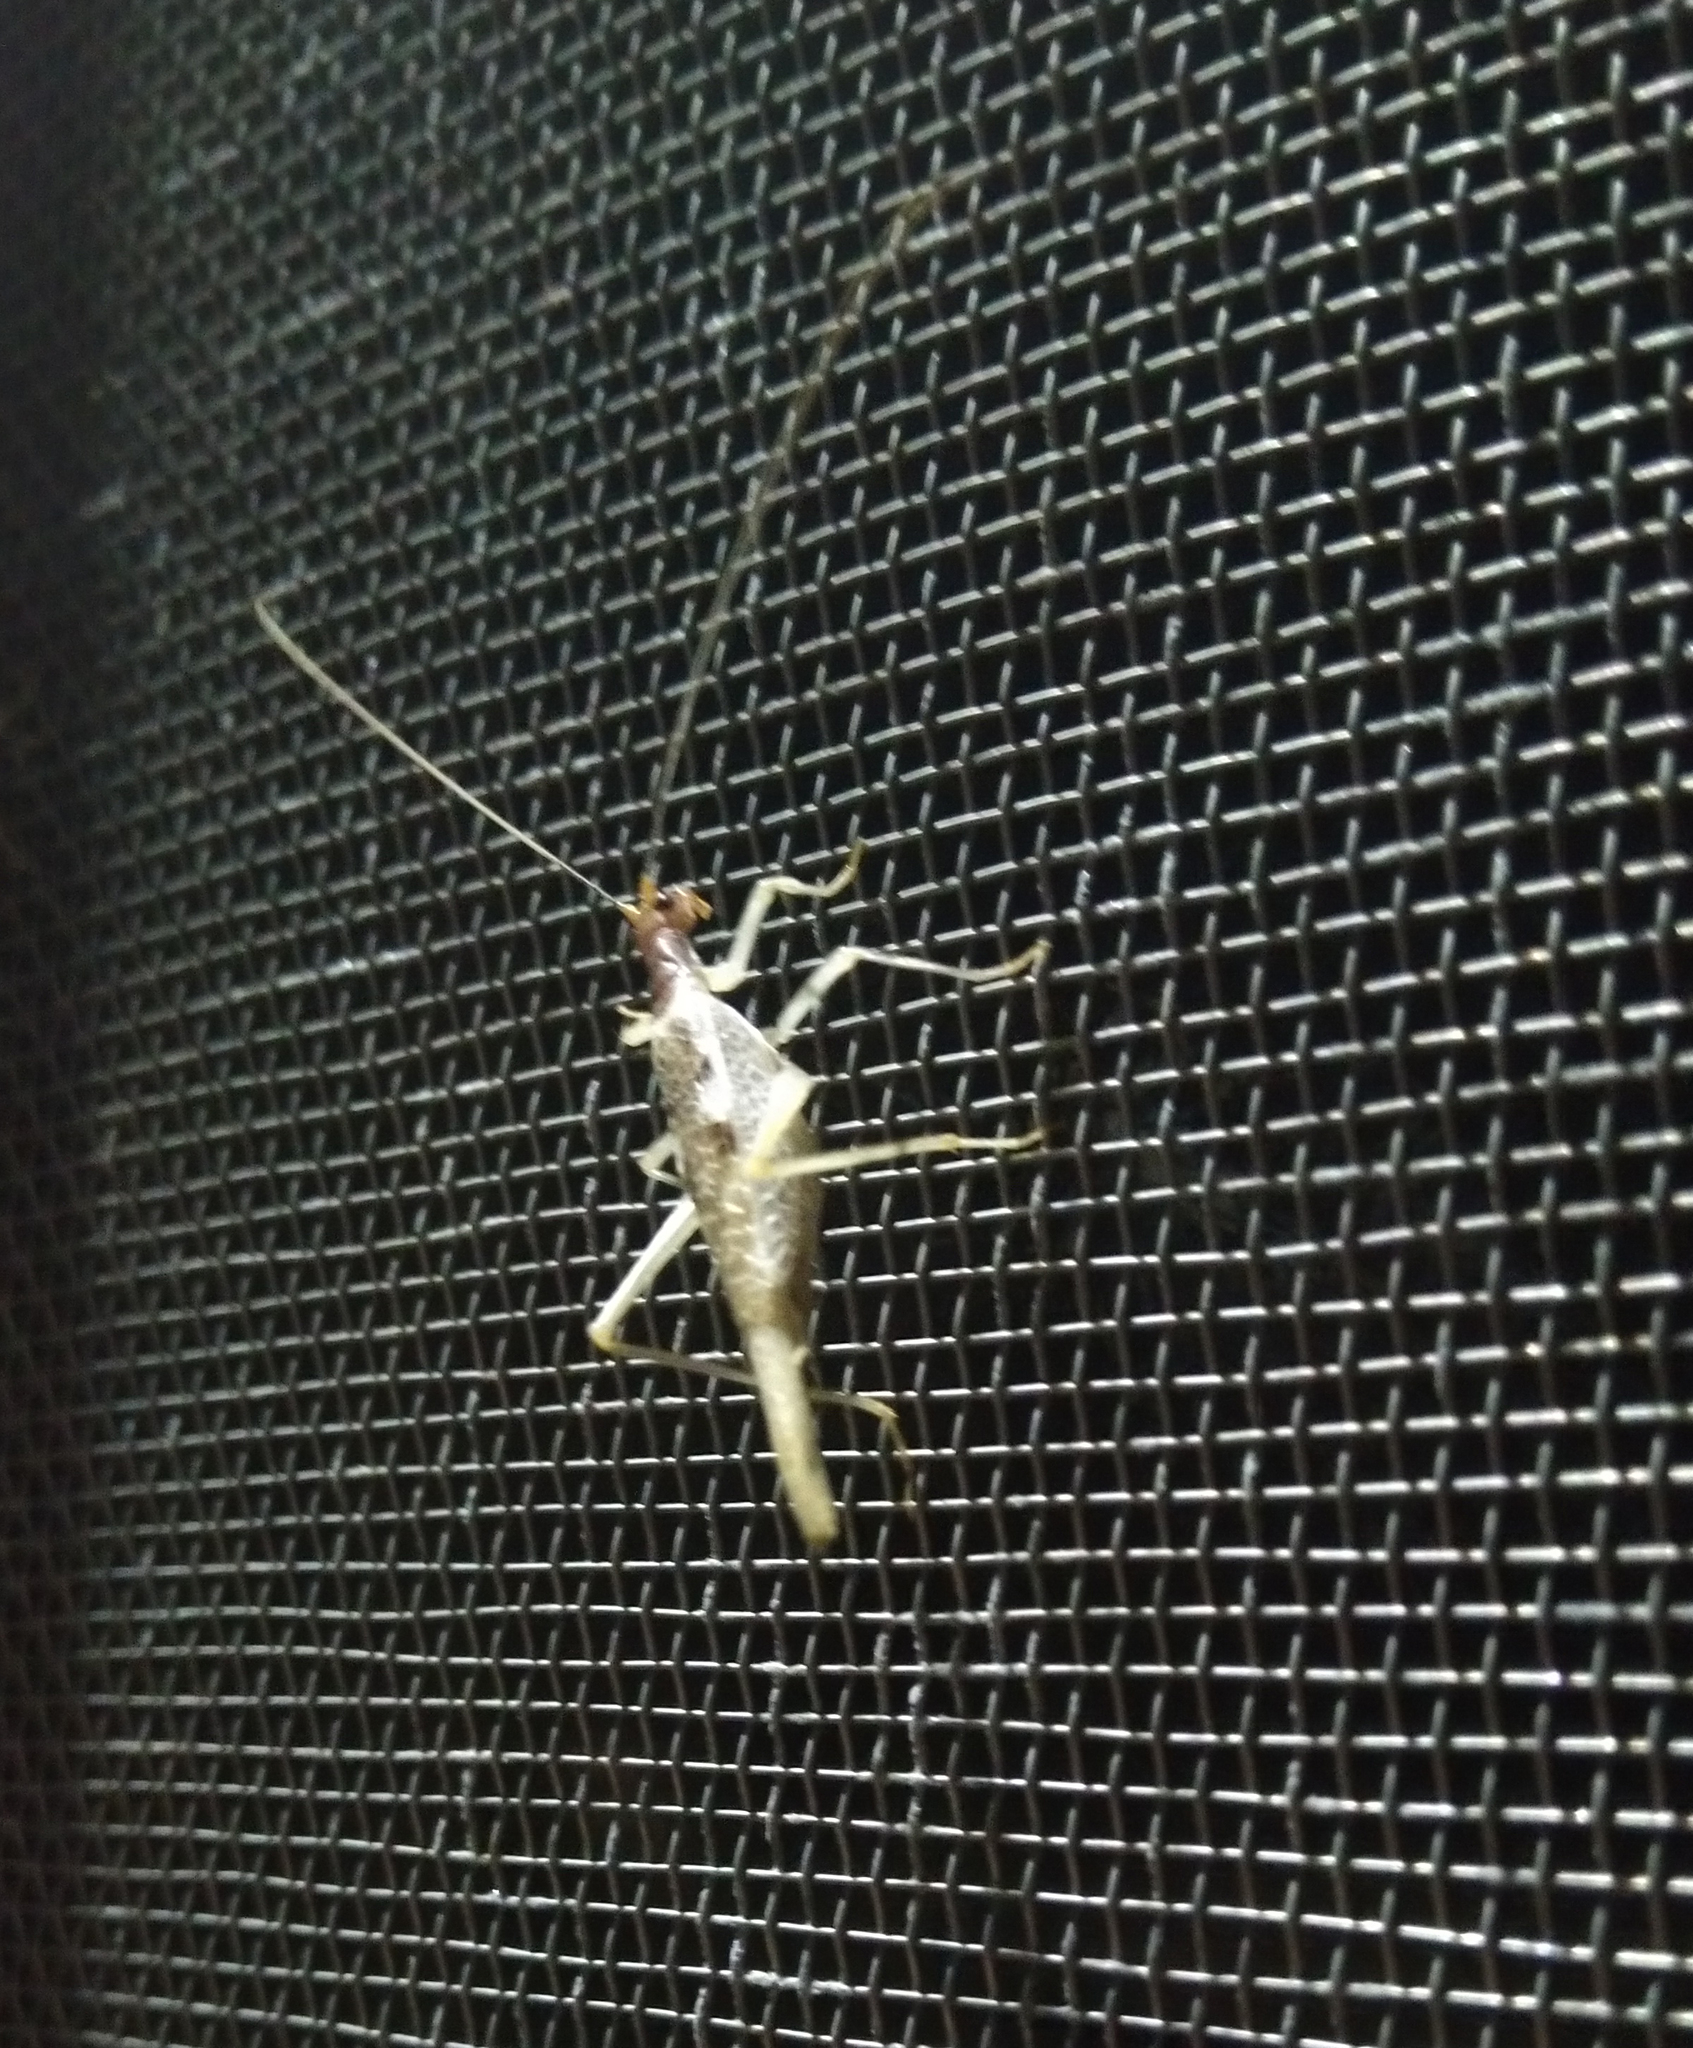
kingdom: Animalia
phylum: Arthropoda
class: Insecta
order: Orthoptera
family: Gryllidae
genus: Neoxabea
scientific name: Neoxabea bipunctata
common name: Two-spotted tree cricket
